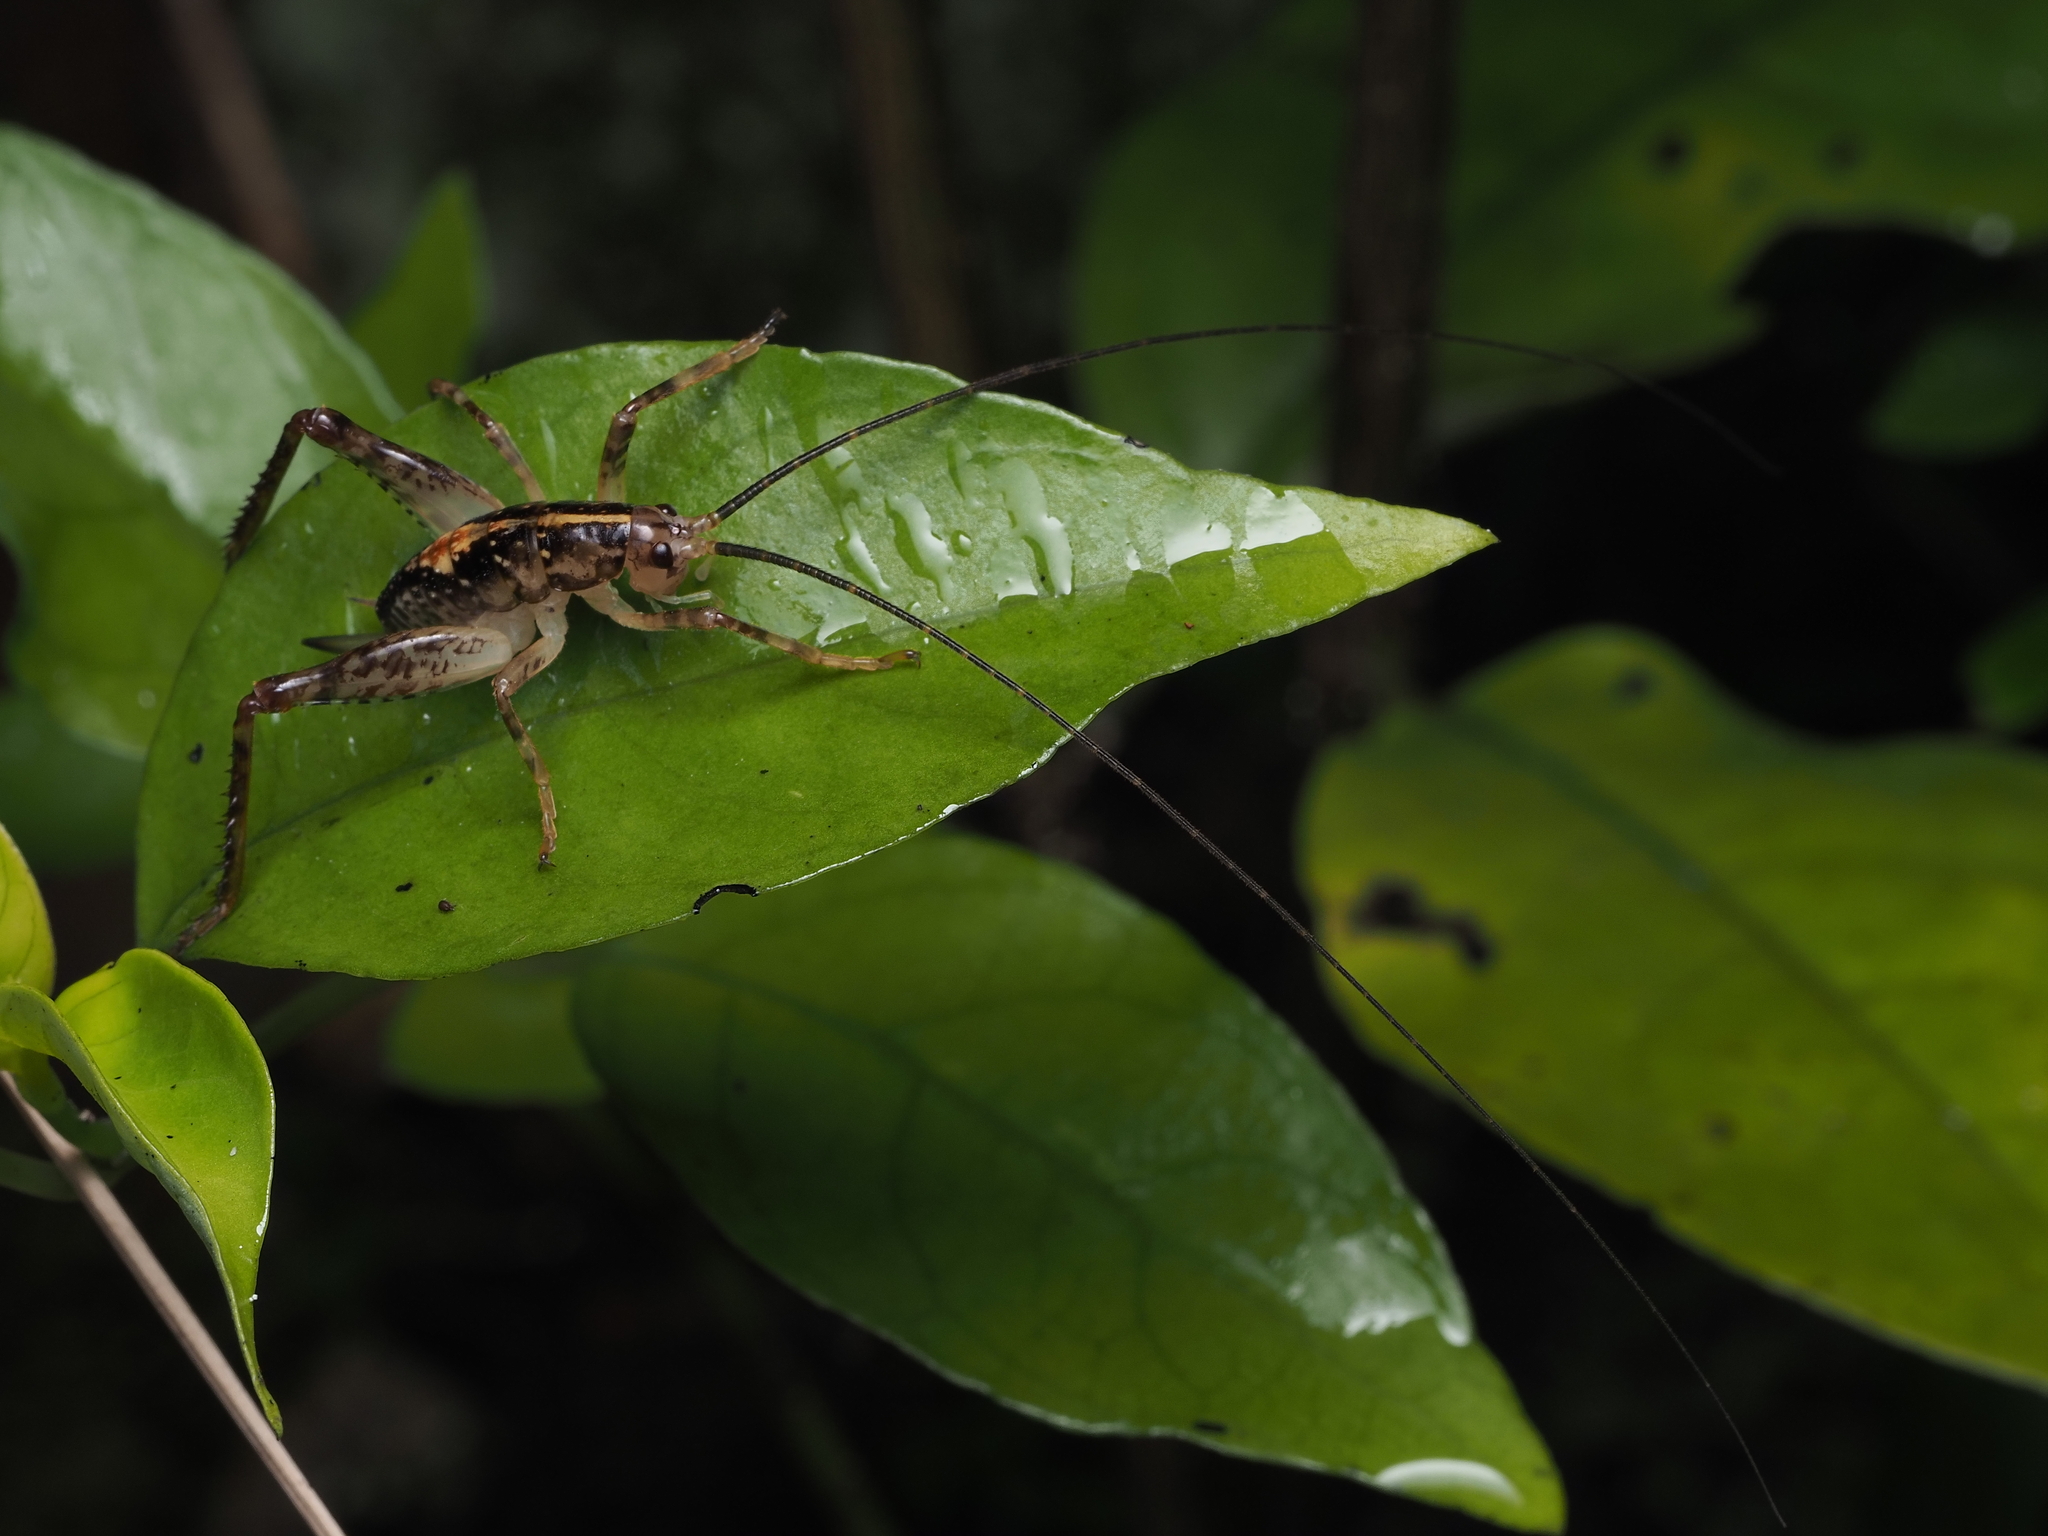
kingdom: Animalia
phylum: Arthropoda
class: Insecta
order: Orthoptera
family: Rhaphidophoridae
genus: Talitropsis
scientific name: Talitropsis sedilloti
